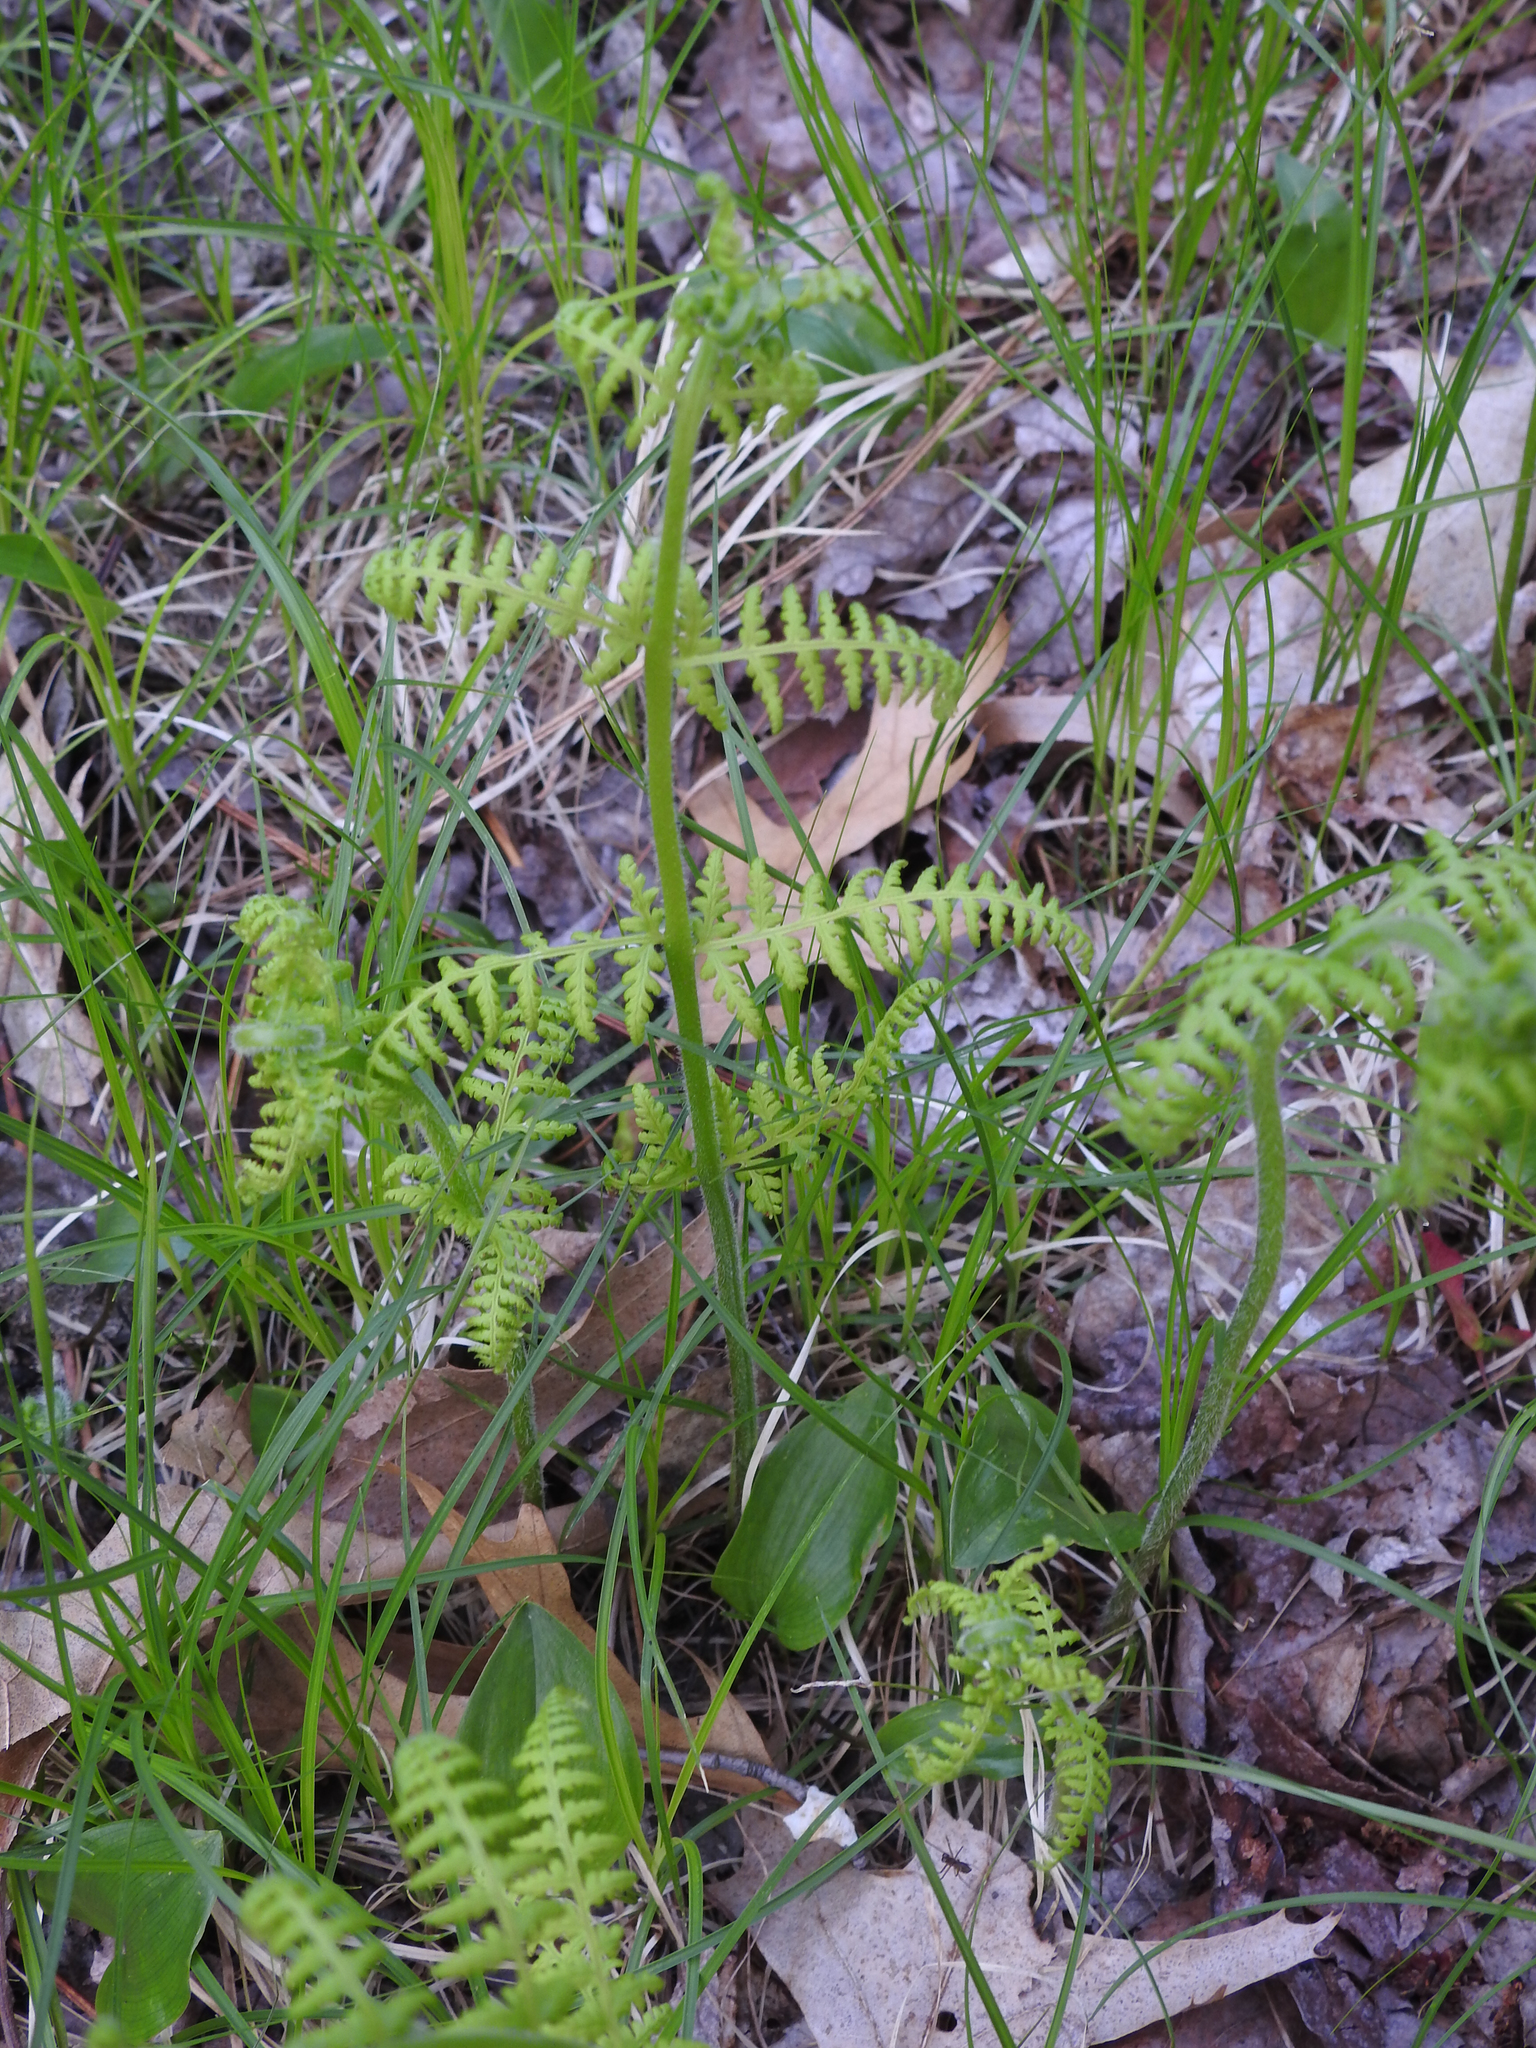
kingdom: Plantae
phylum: Tracheophyta
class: Polypodiopsida
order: Polypodiales
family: Dennstaedtiaceae
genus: Sitobolium
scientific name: Sitobolium punctilobum
